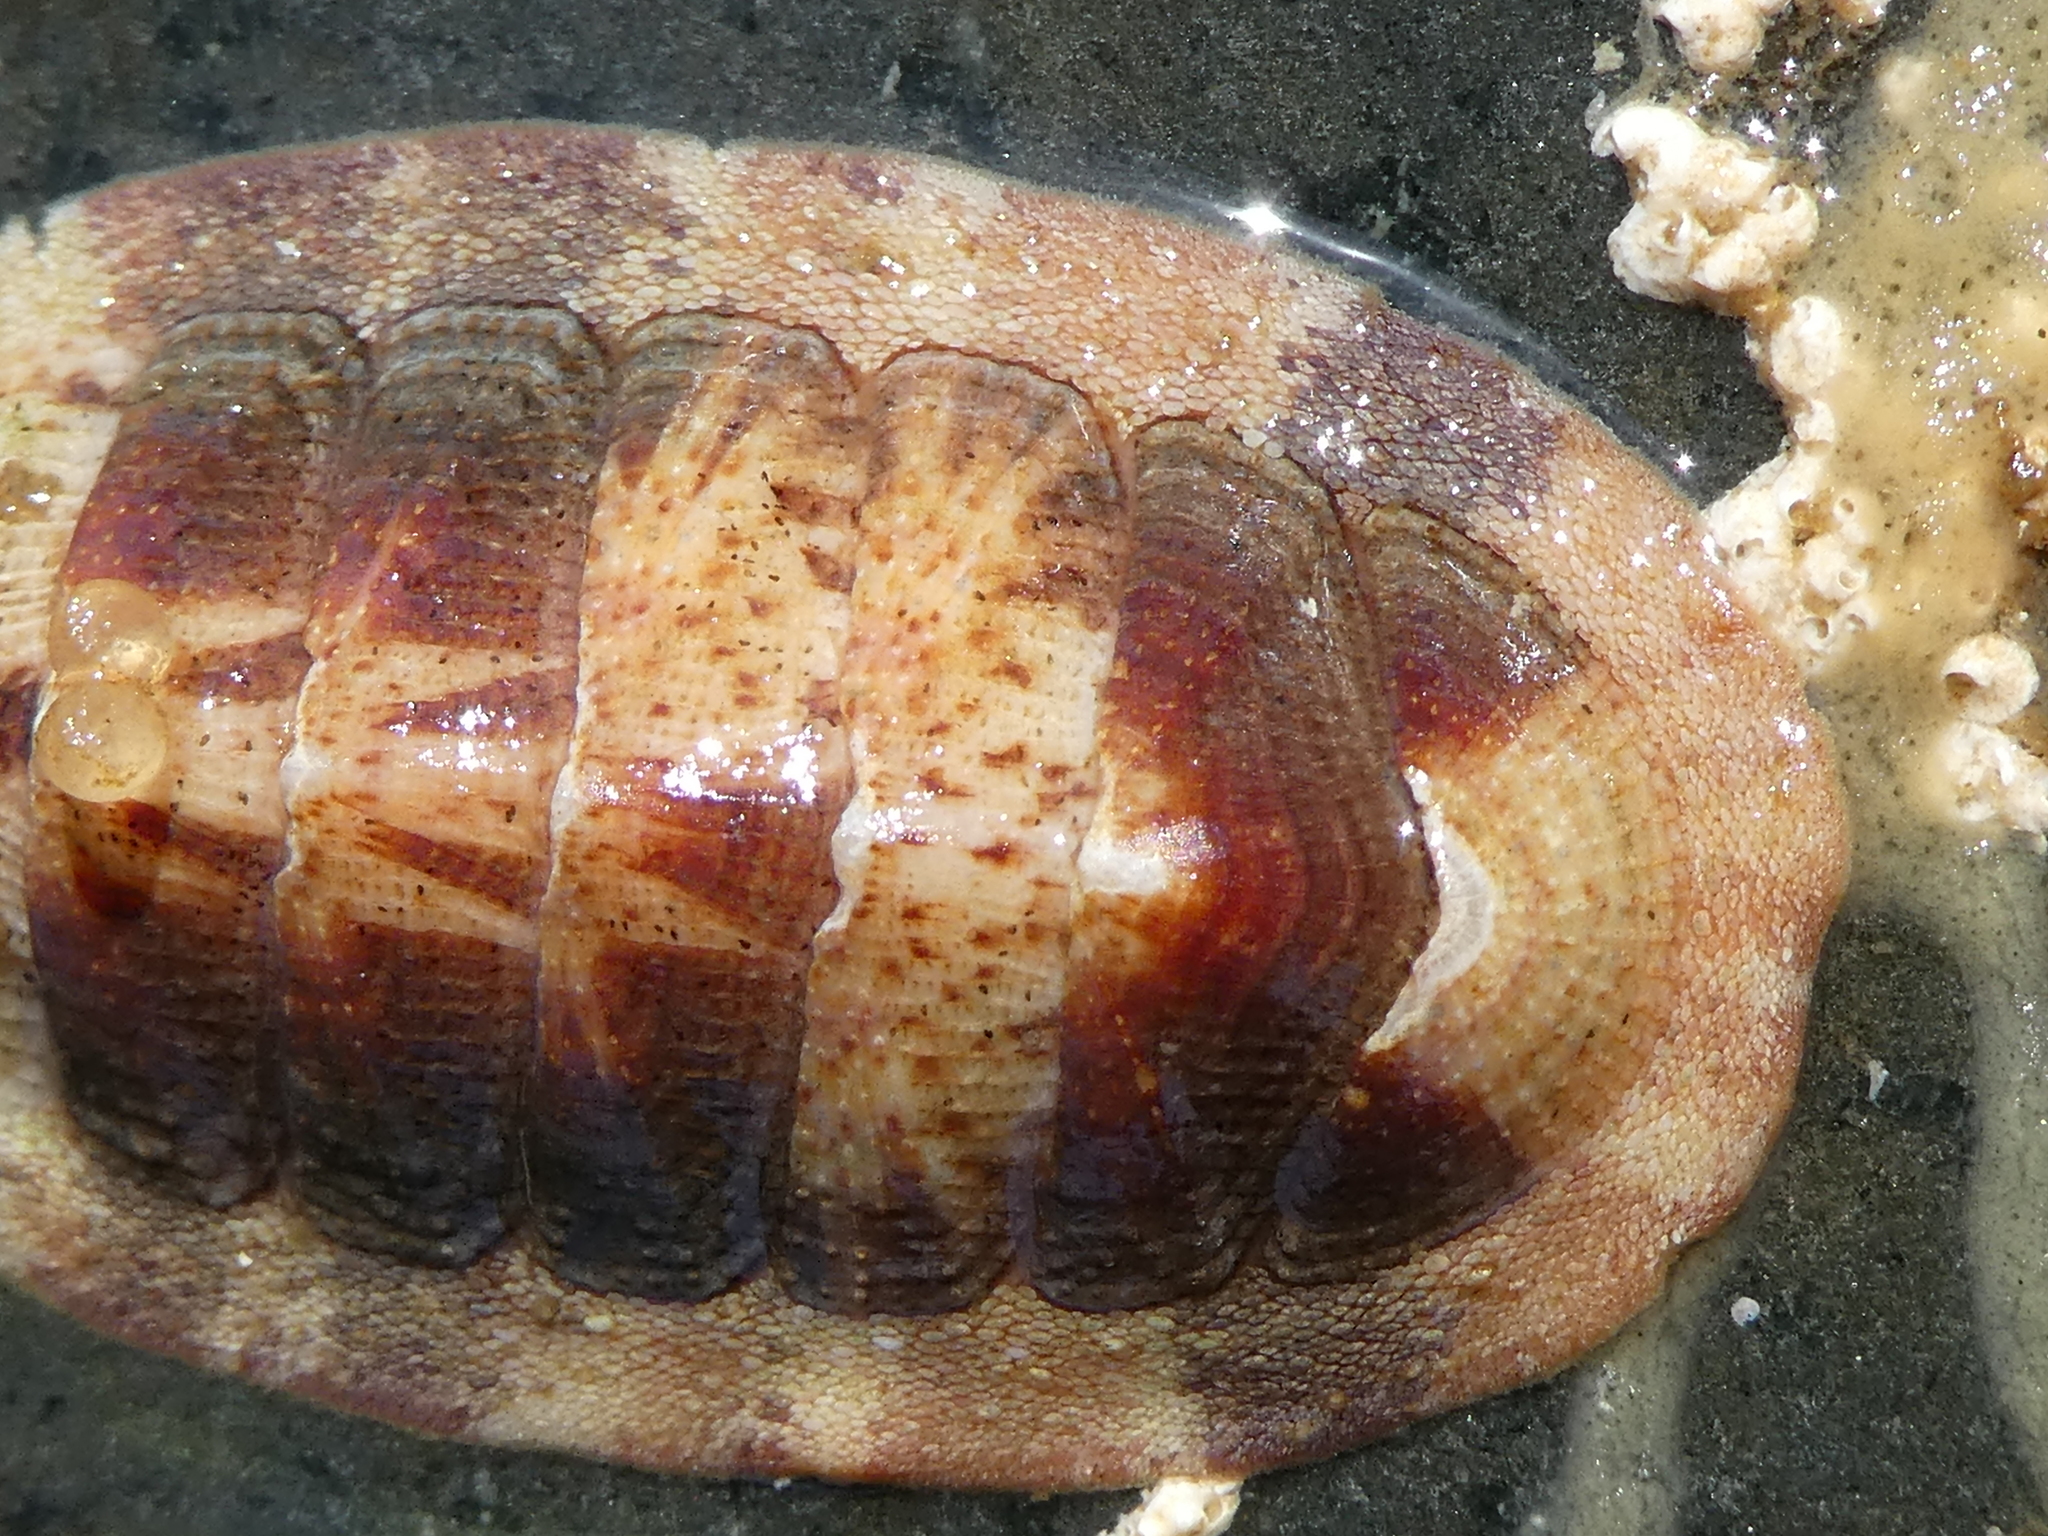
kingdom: Animalia
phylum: Mollusca
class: Polyplacophora
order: Chitonida
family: Ischnochitonidae
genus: Lepidozona
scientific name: Lepidozona mertensii
